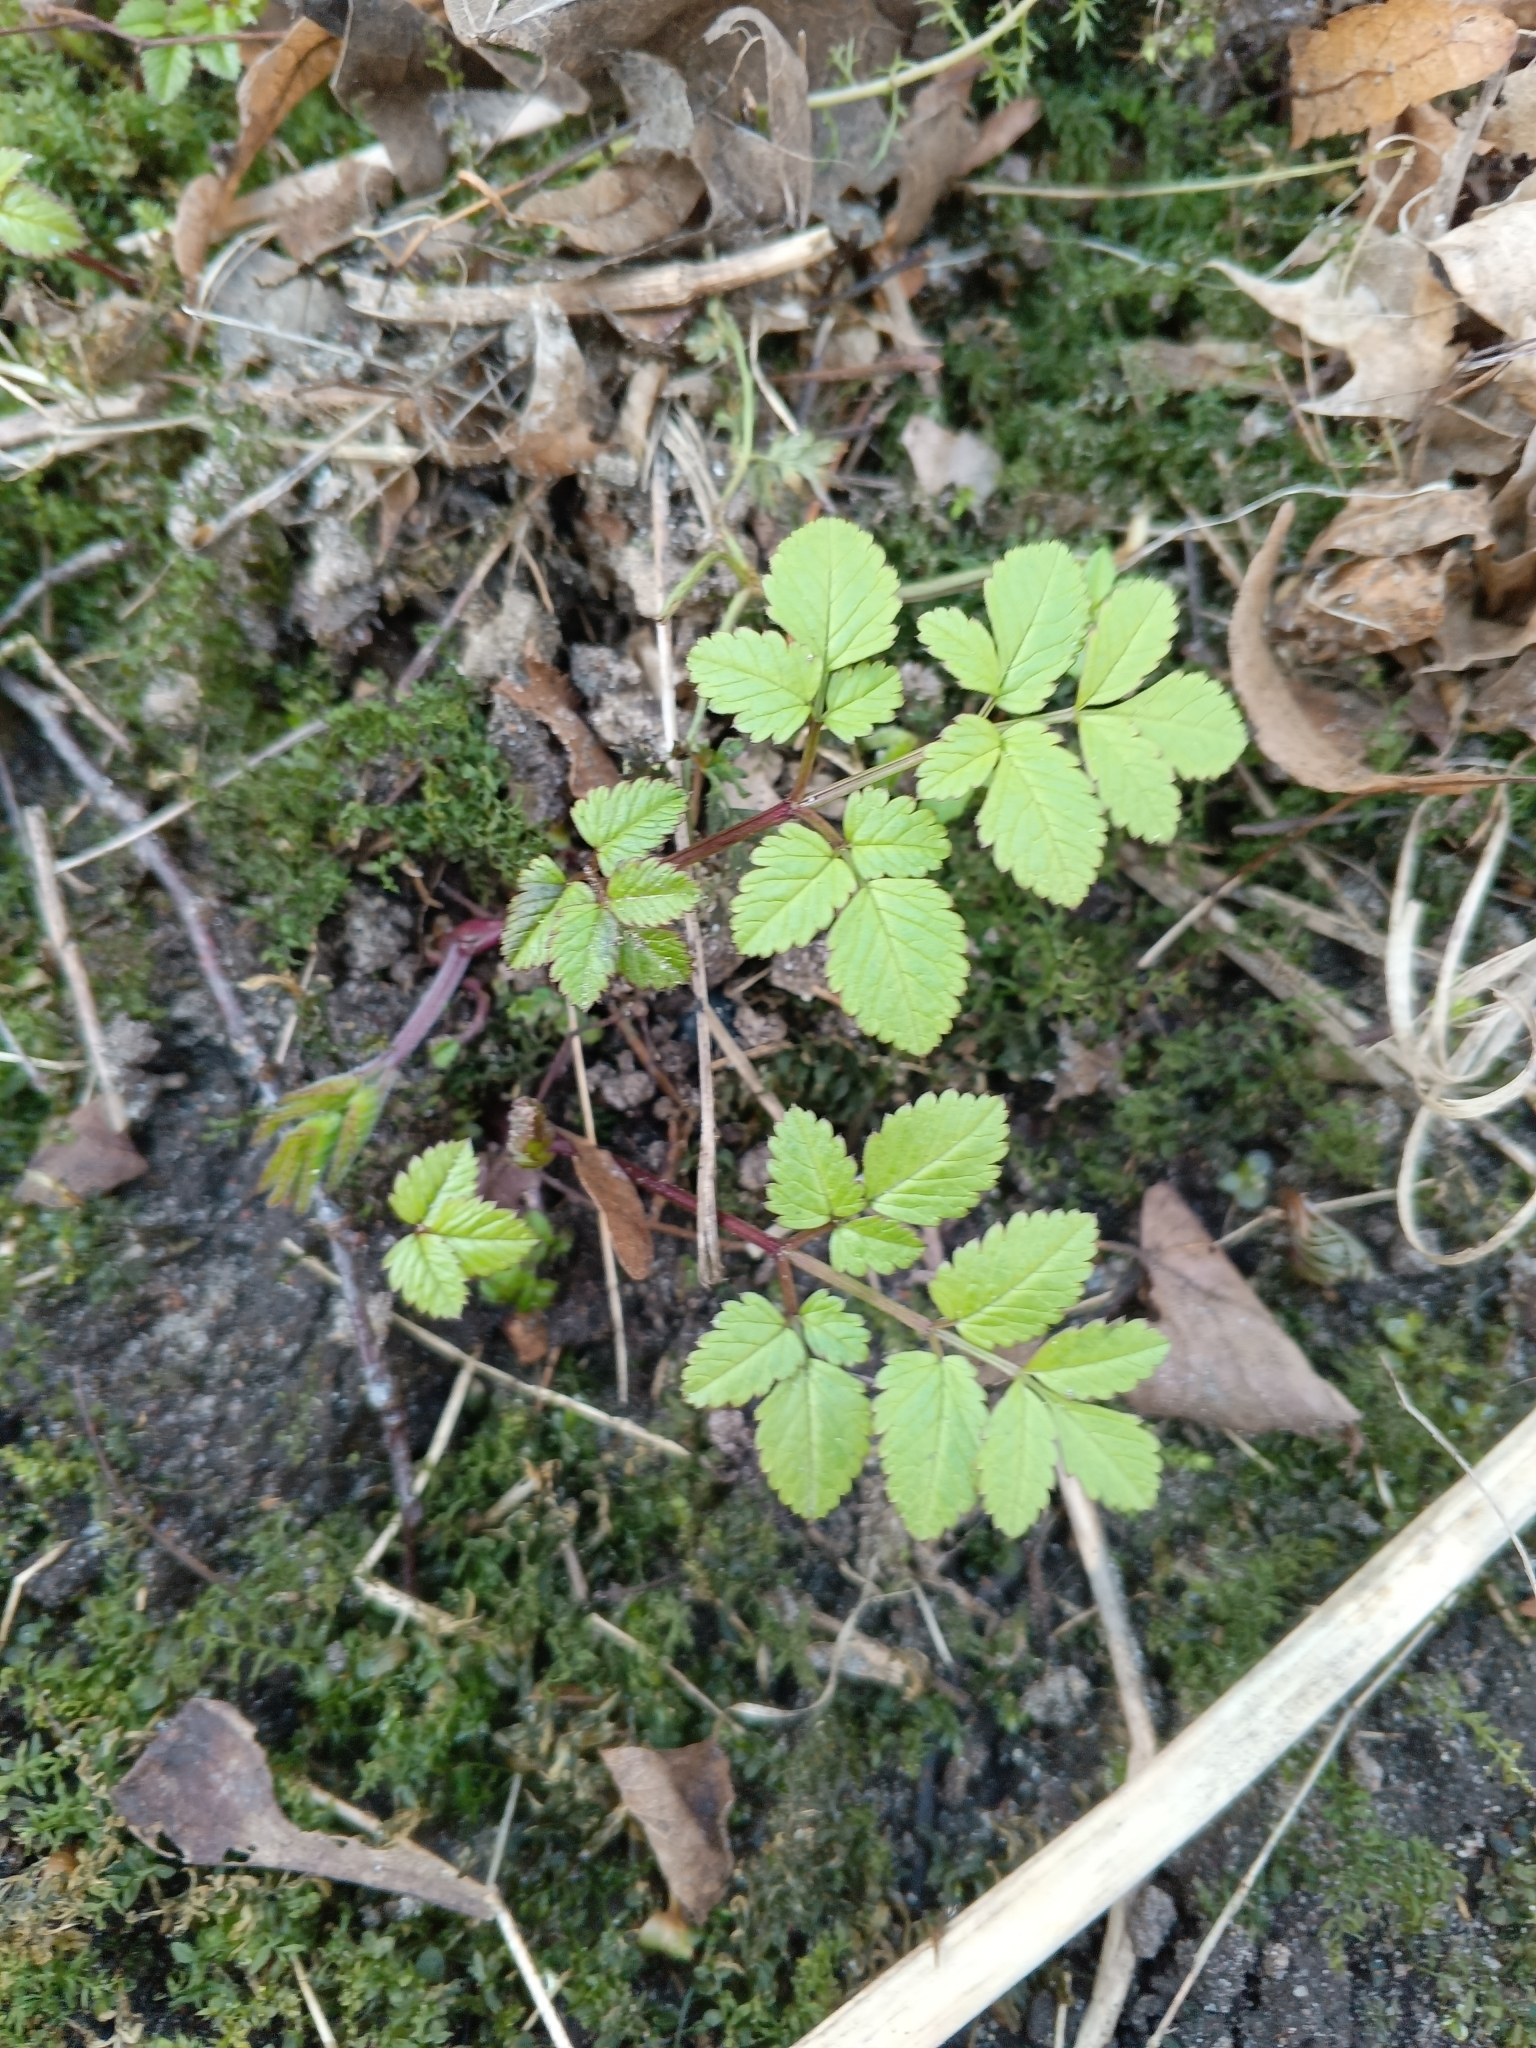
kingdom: Plantae
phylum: Tracheophyta
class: Magnoliopsida
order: Apiales
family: Apiaceae
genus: Chaerophyllum
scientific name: Chaerophyllum aromaticum
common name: Broadleaf chervil
